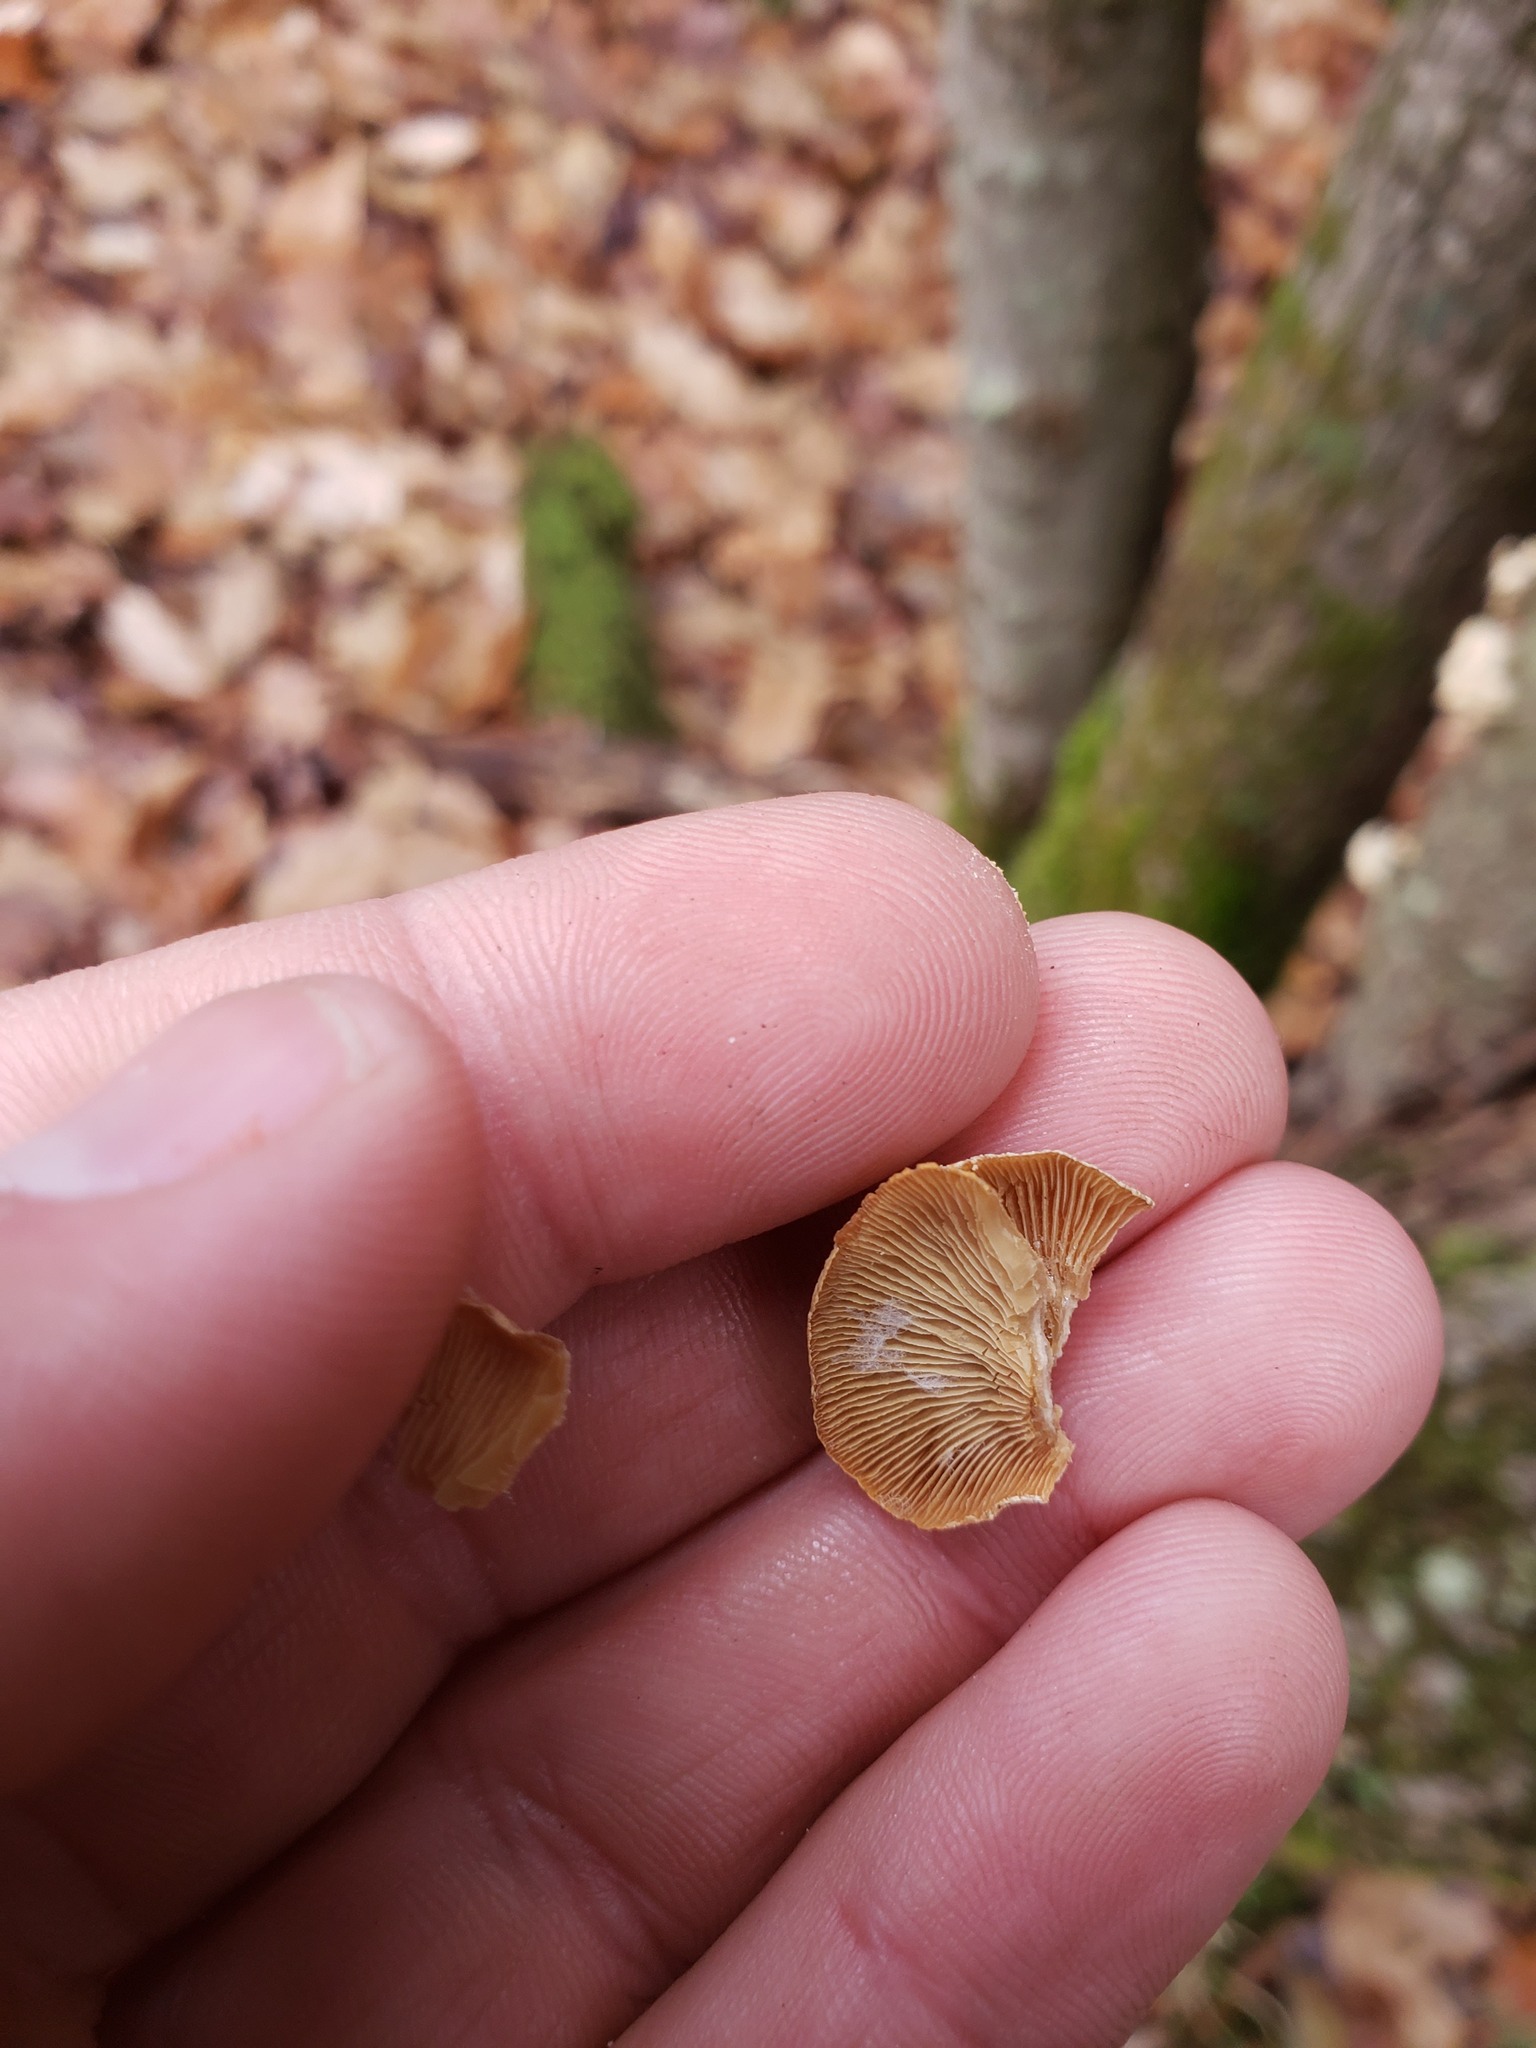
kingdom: Fungi
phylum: Basidiomycota
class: Agaricomycetes
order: Agaricales
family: Mycenaceae
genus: Panellus
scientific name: Panellus stipticus
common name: Bitter oysterling
